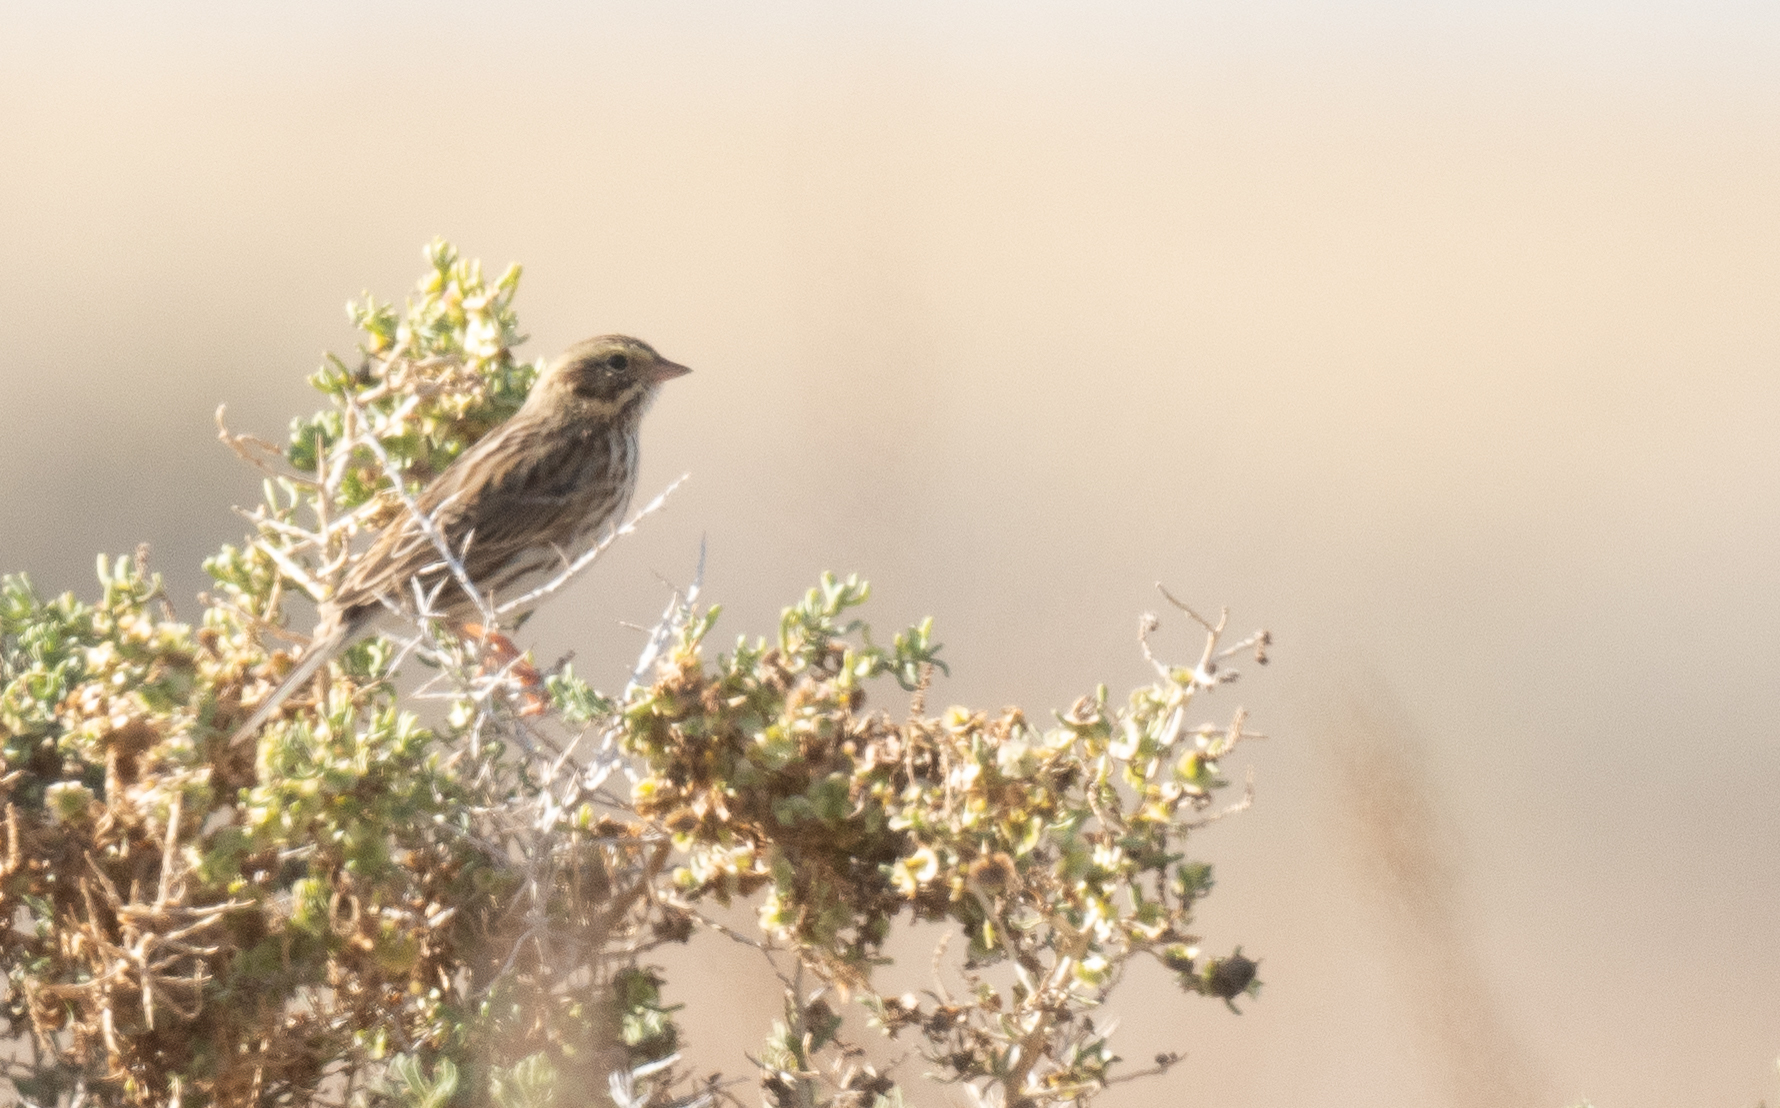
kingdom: Animalia
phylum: Chordata
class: Aves
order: Passeriformes
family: Passerellidae
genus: Passerculus
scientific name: Passerculus sandwichensis
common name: Savannah sparrow
